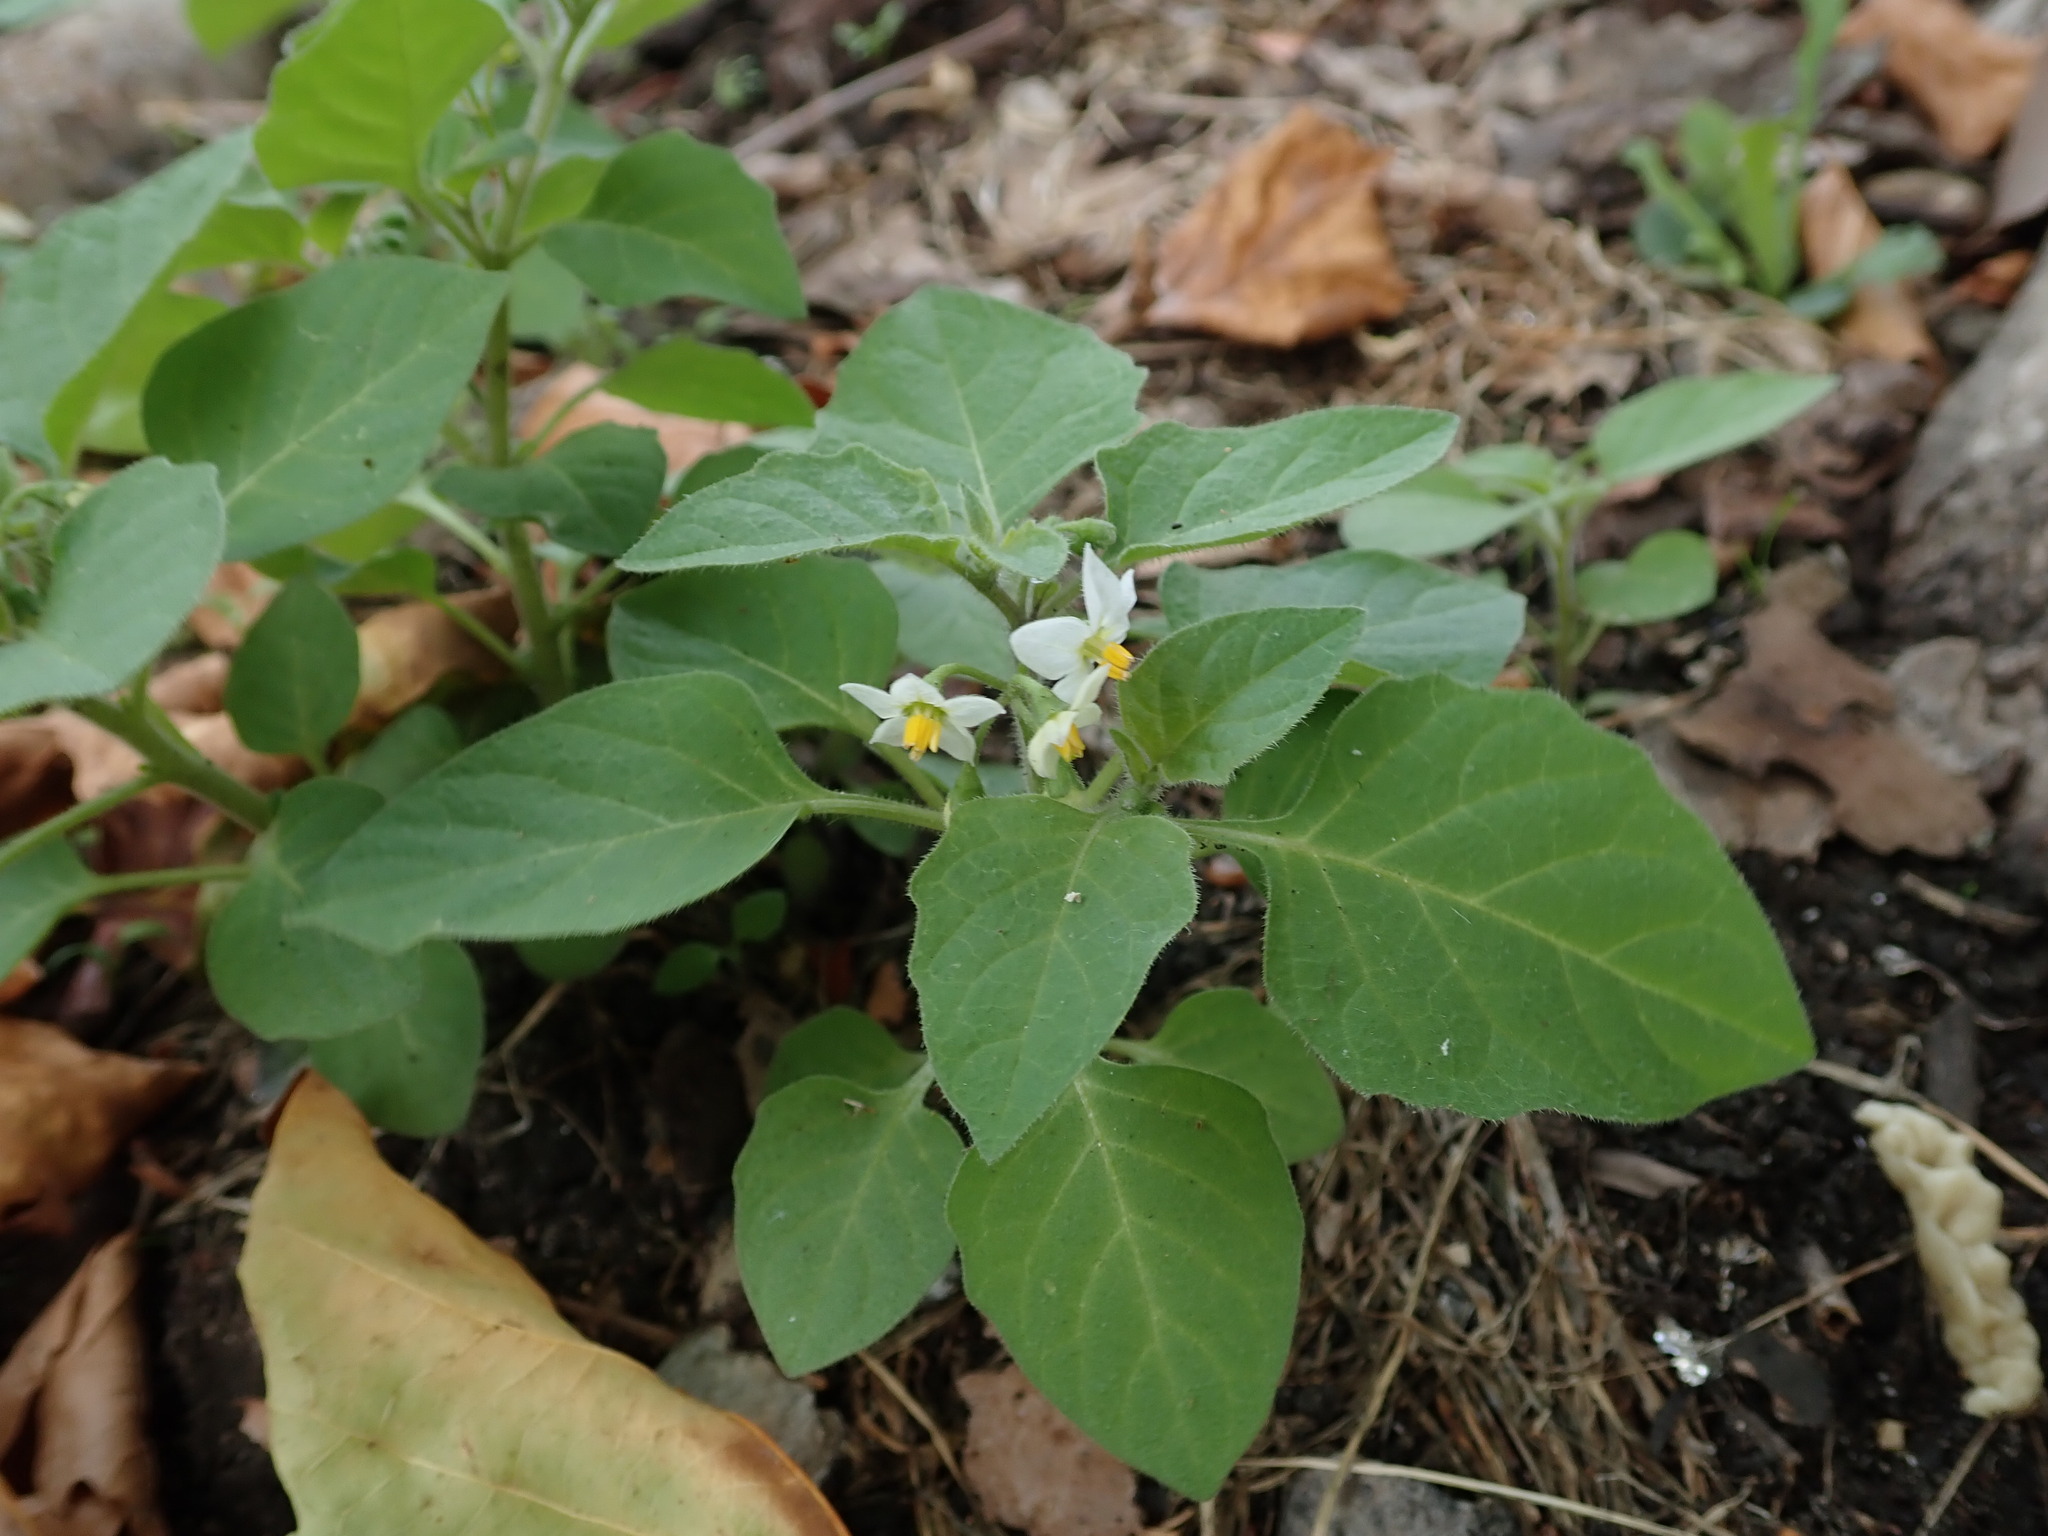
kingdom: Plantae
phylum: Tracheophyta
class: Magnoliopsida
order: Solanales
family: Solanaceae
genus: Solanum
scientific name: Solanum nigrum
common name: Black nightshade
